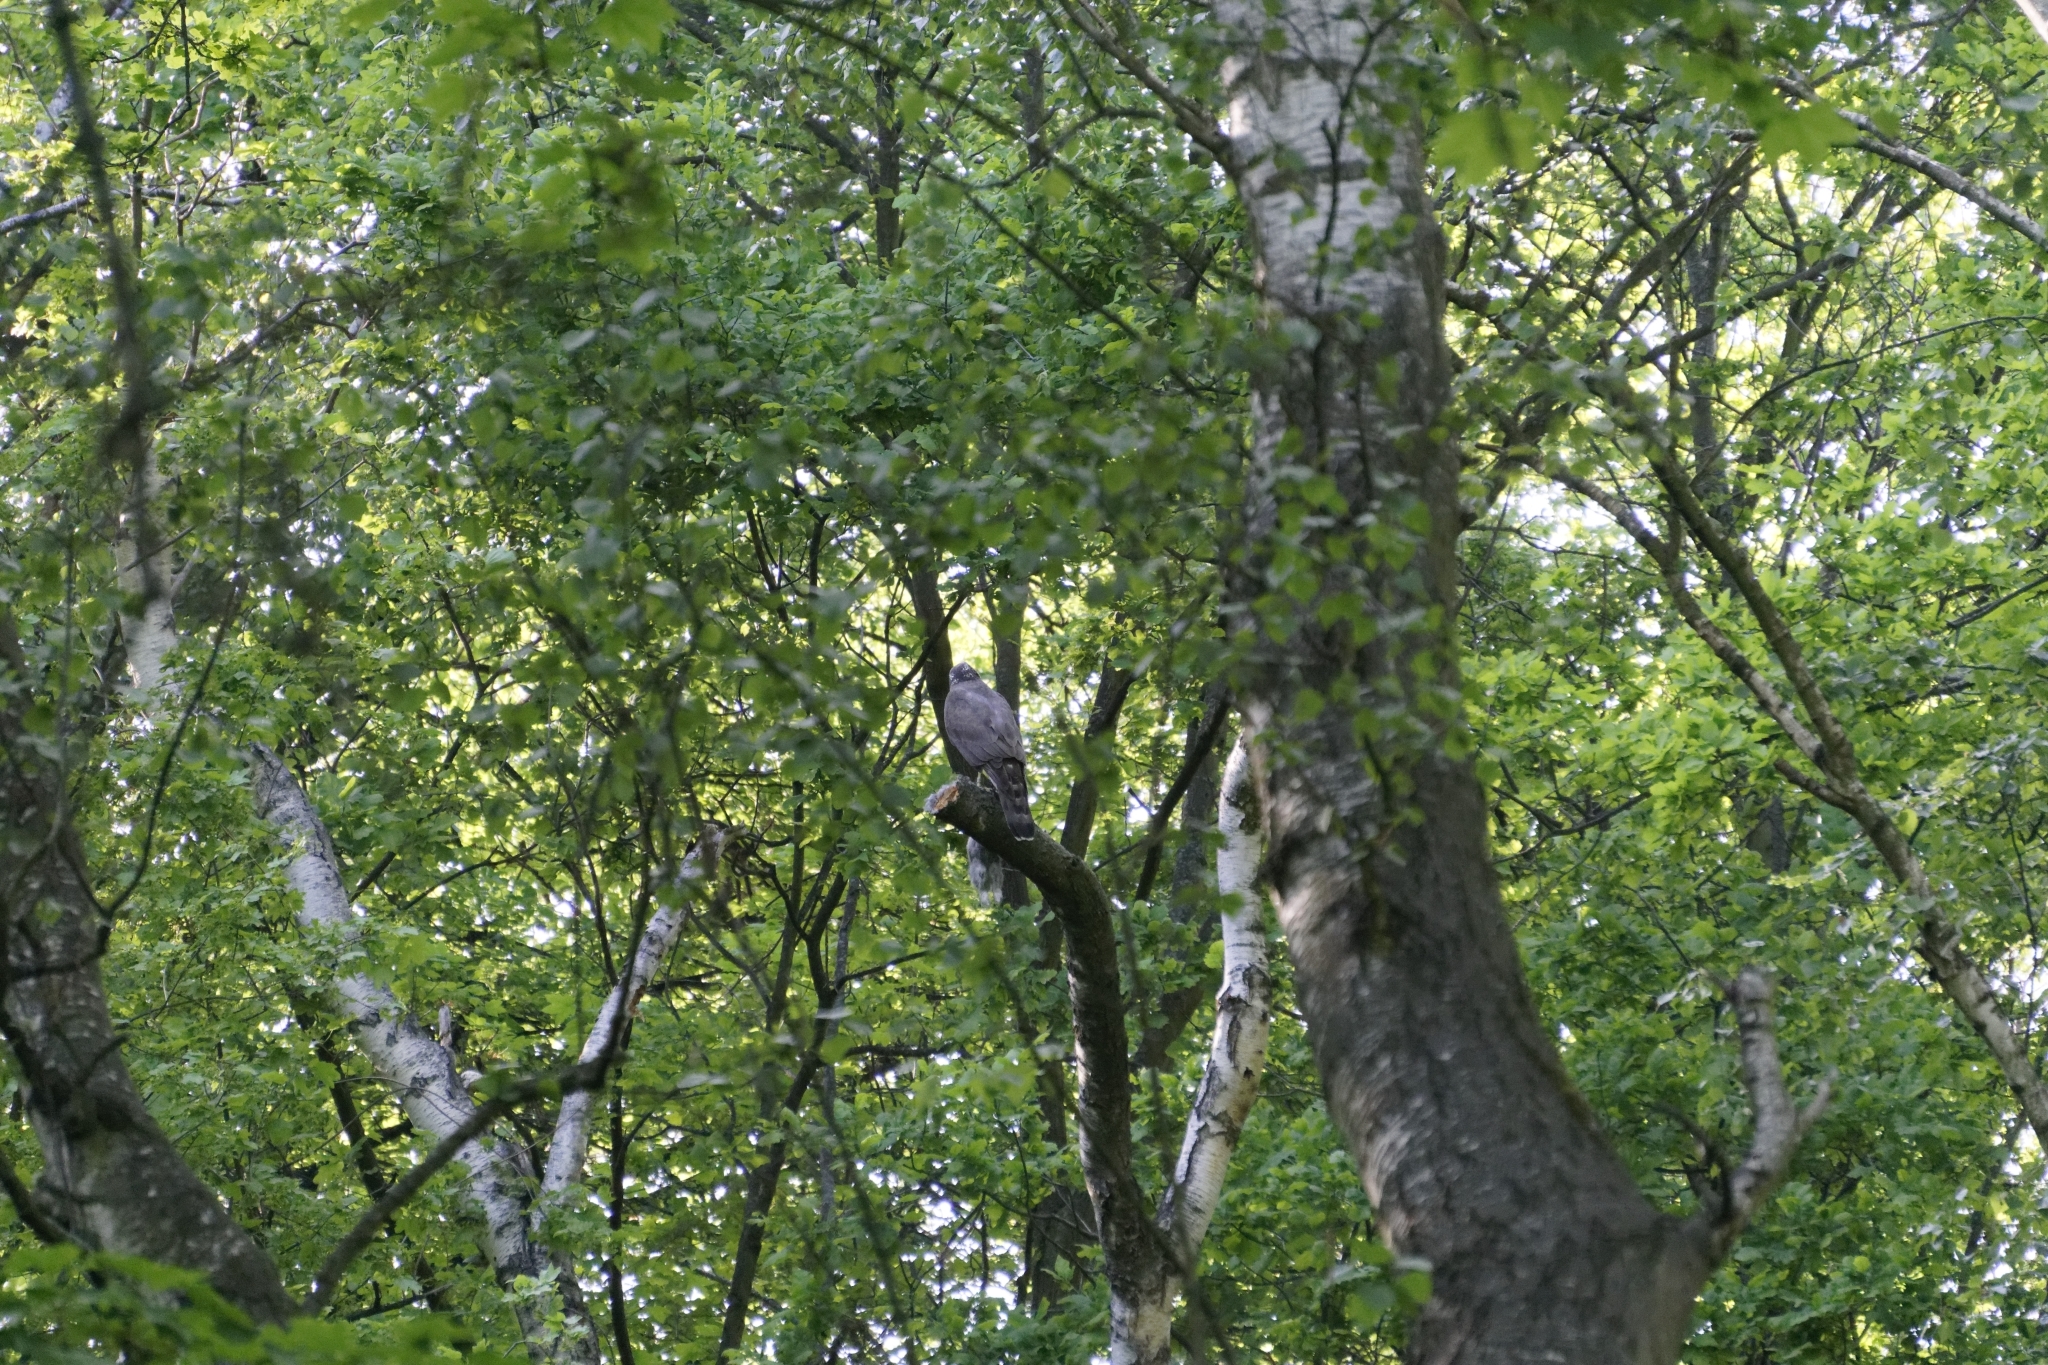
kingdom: Animalia
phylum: Chordata
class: Aves
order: Accipitriformes
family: Accipitridae
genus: Accipiter
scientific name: Accipiter gentilis
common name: Northern goshawk
